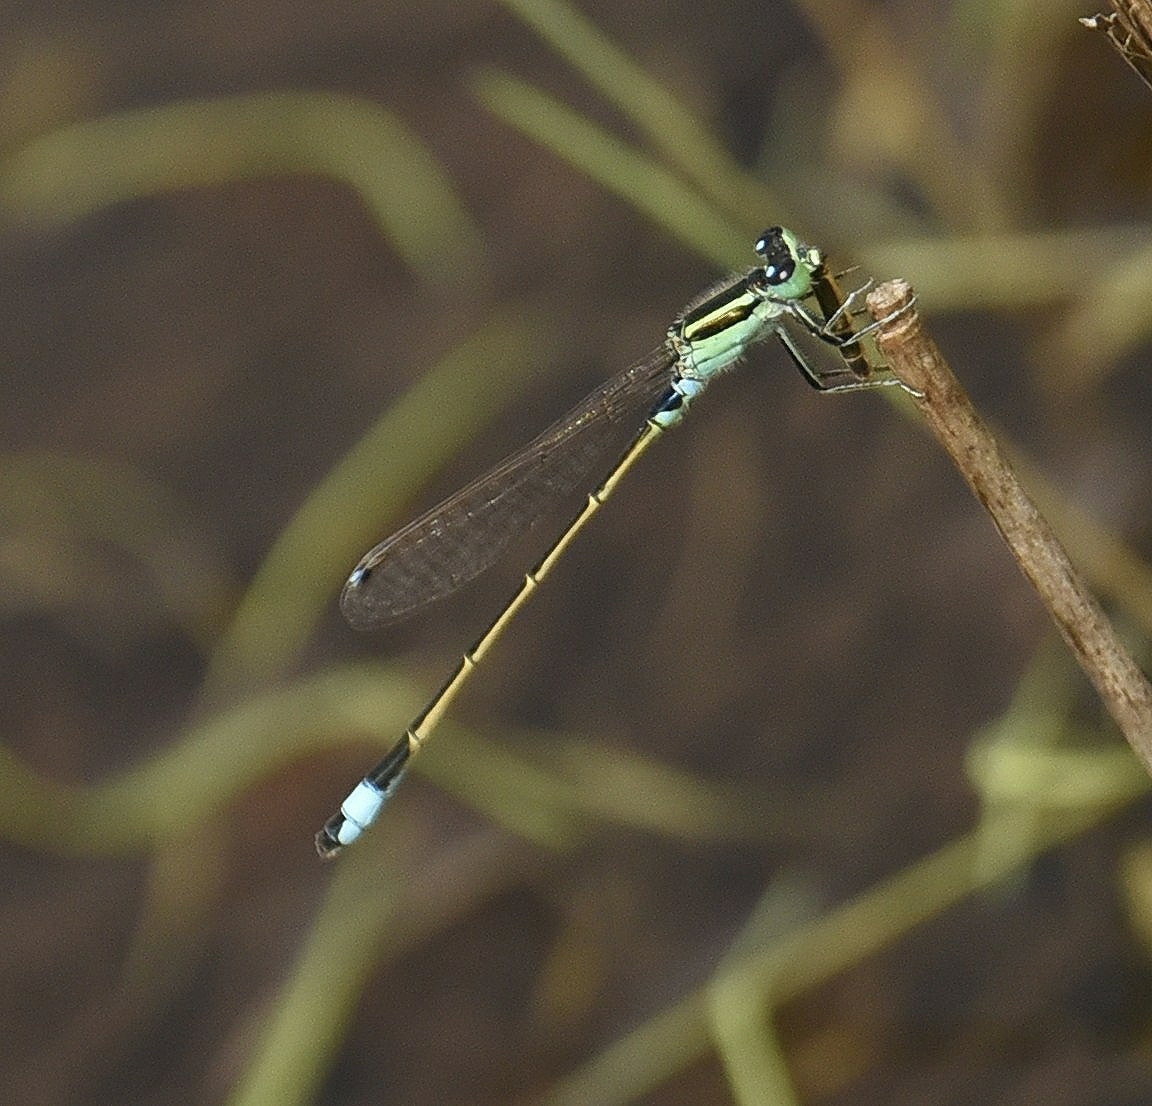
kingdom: Animalia
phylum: Arthropoda
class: Insecta
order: Odonata
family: Coenagrionidae
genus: Ischnura
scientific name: Ischnura senegalensis
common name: Tropical bluetail
